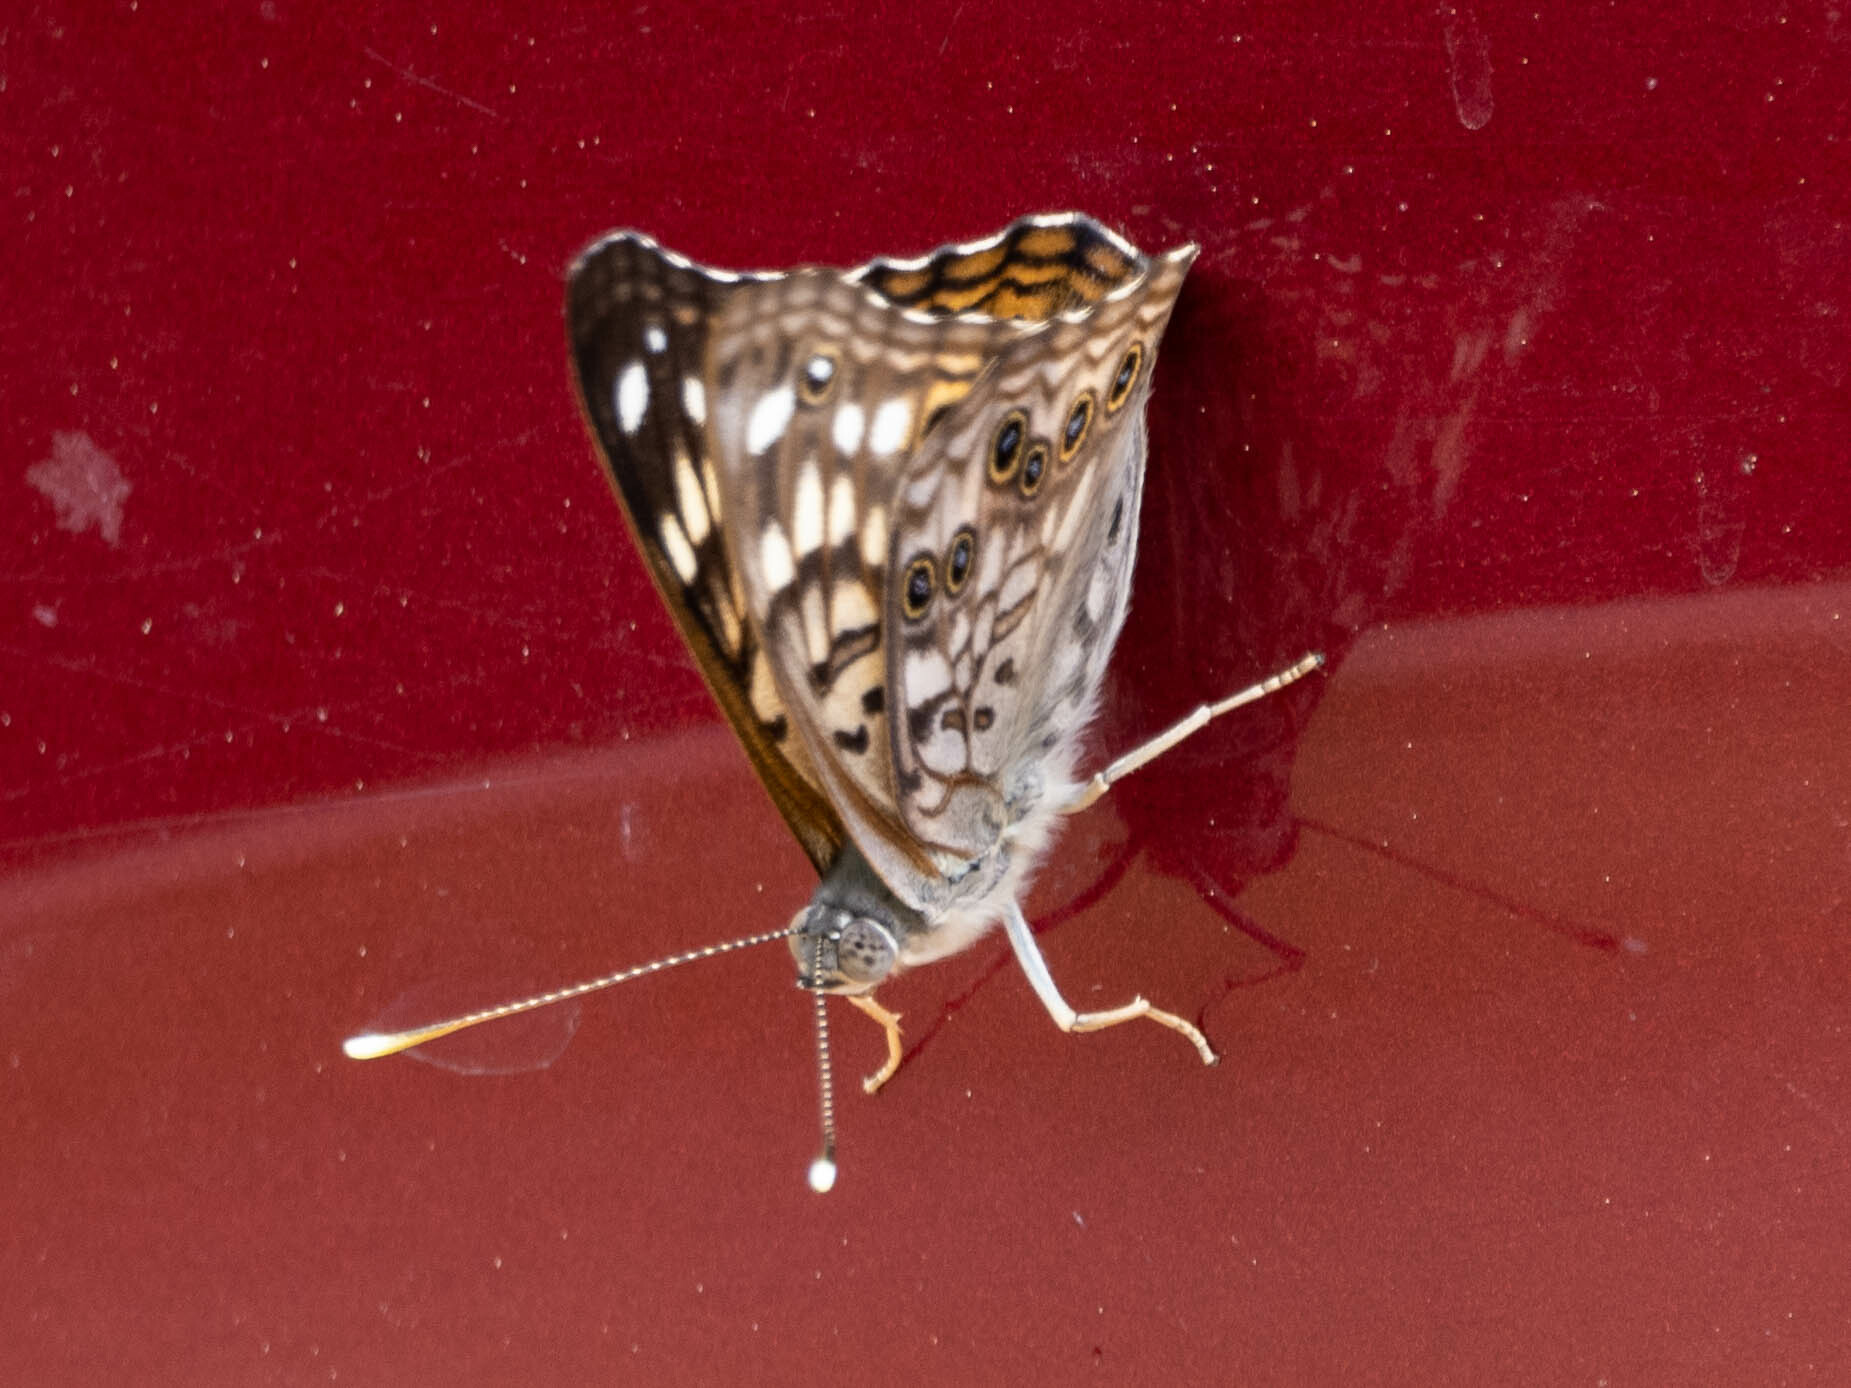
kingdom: Animalia
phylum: Arthropoda
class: Insecta
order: Lepidoptera
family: Nymphalidae
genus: Asterocampa
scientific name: Asterocampa celtis
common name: Hackberry emperor
